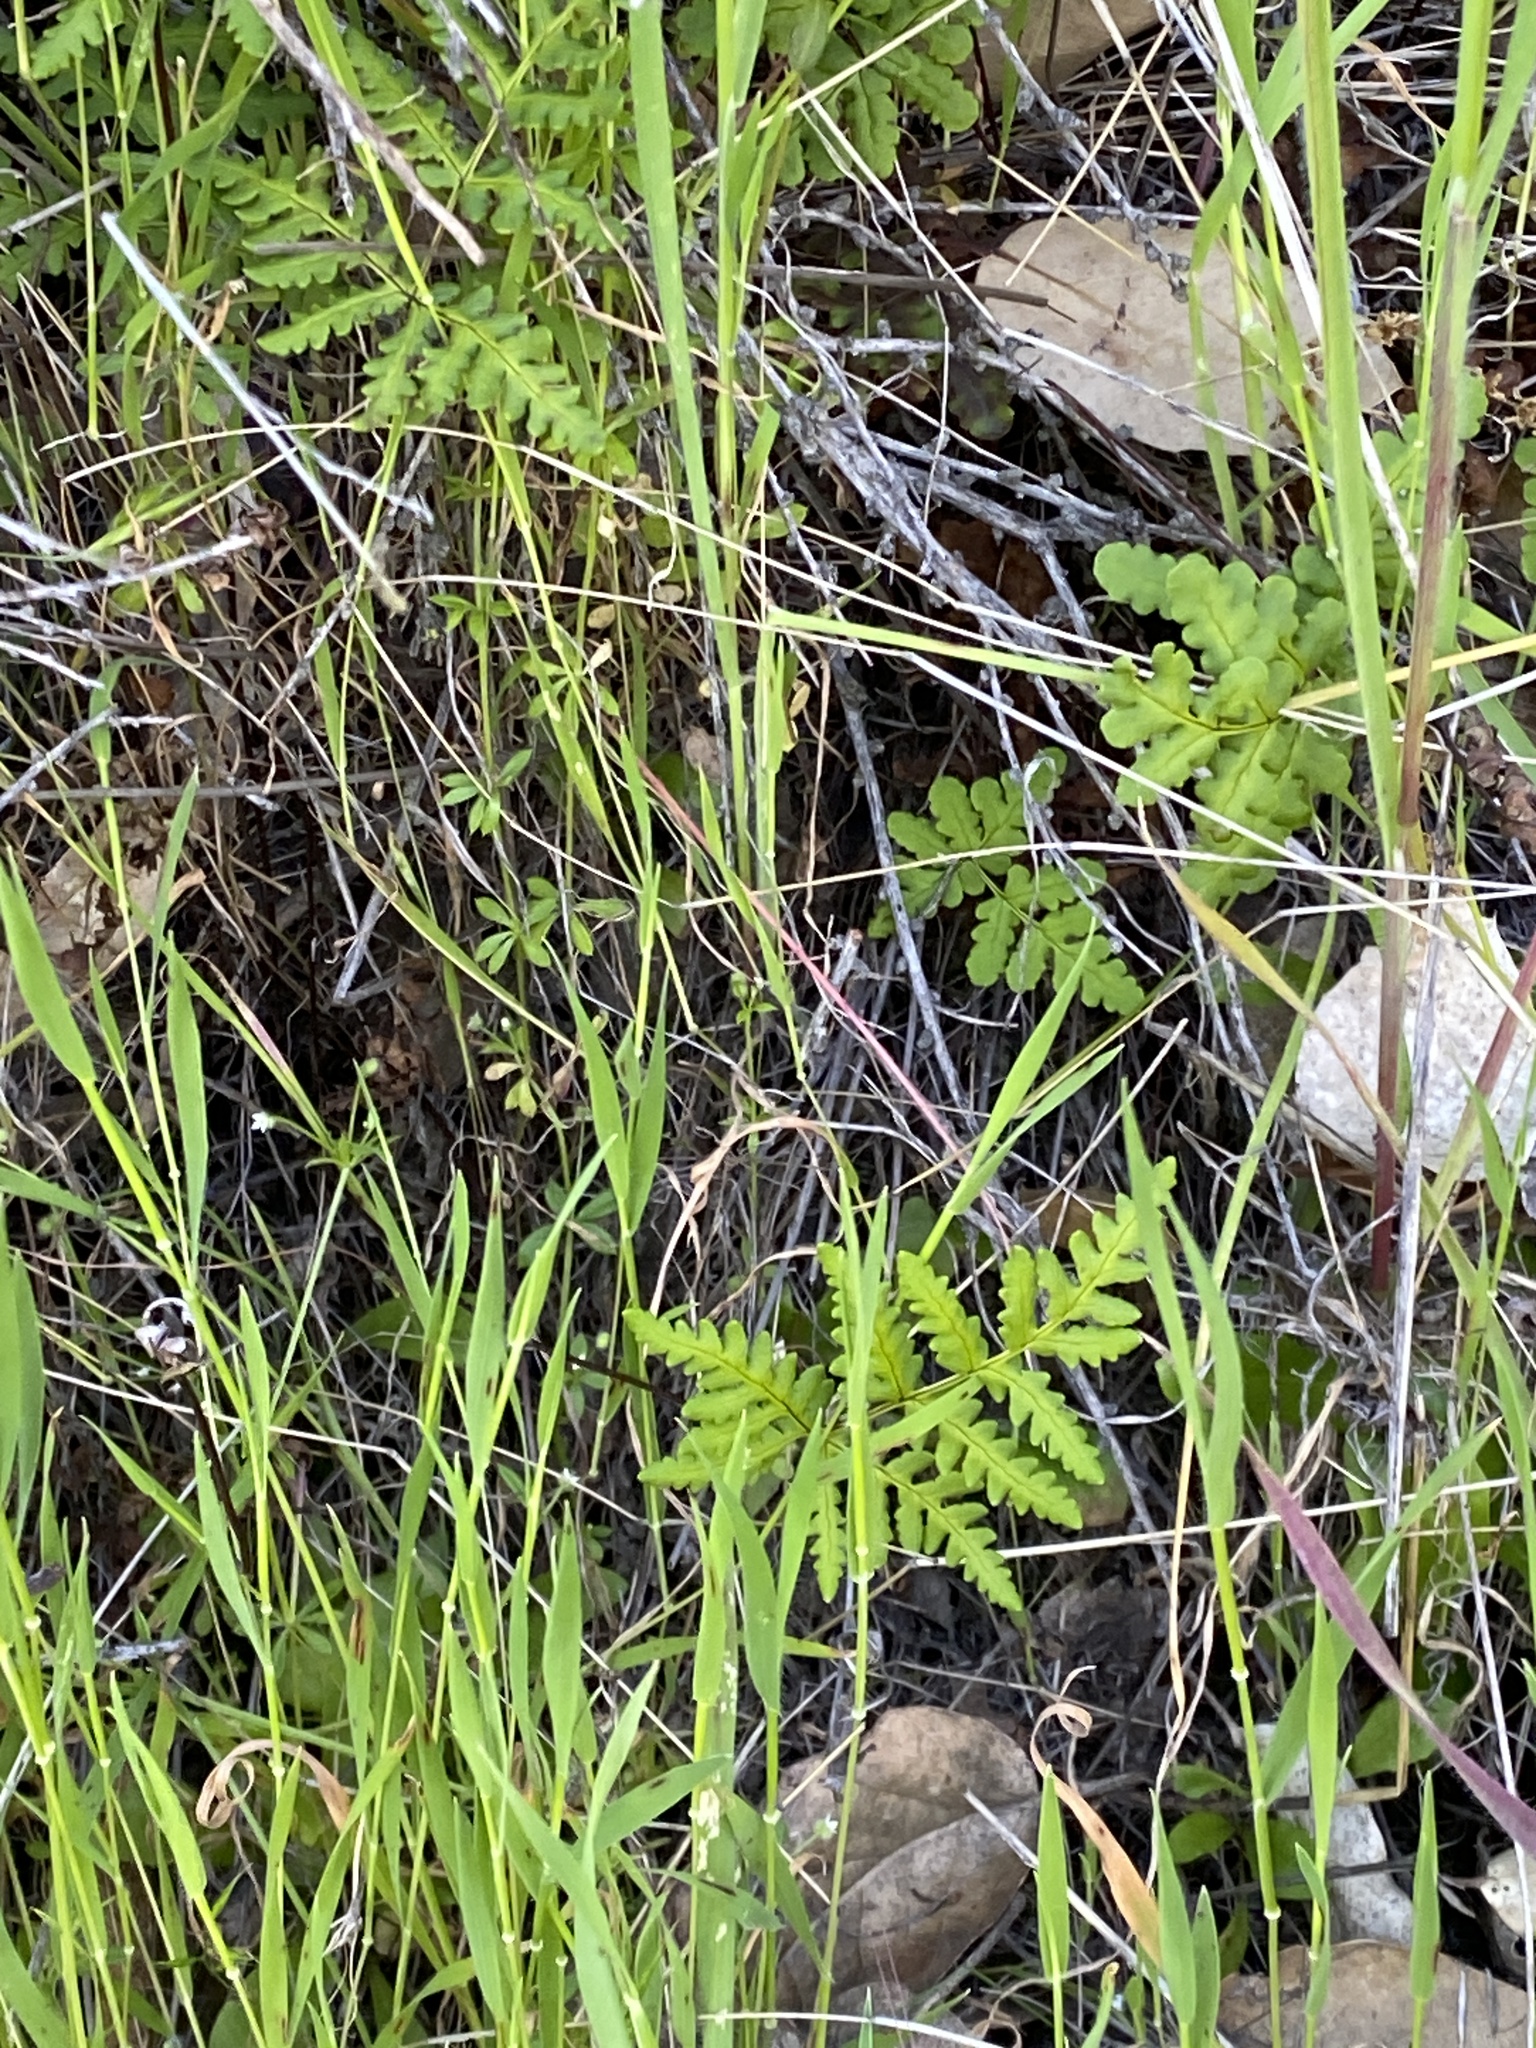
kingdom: Plantae
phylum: Tracheophyta
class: Polypodiopsida
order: Polypodiales
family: Pteridaceae
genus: Pentagramma
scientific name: Pentagramma triangularis
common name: Gold fern
